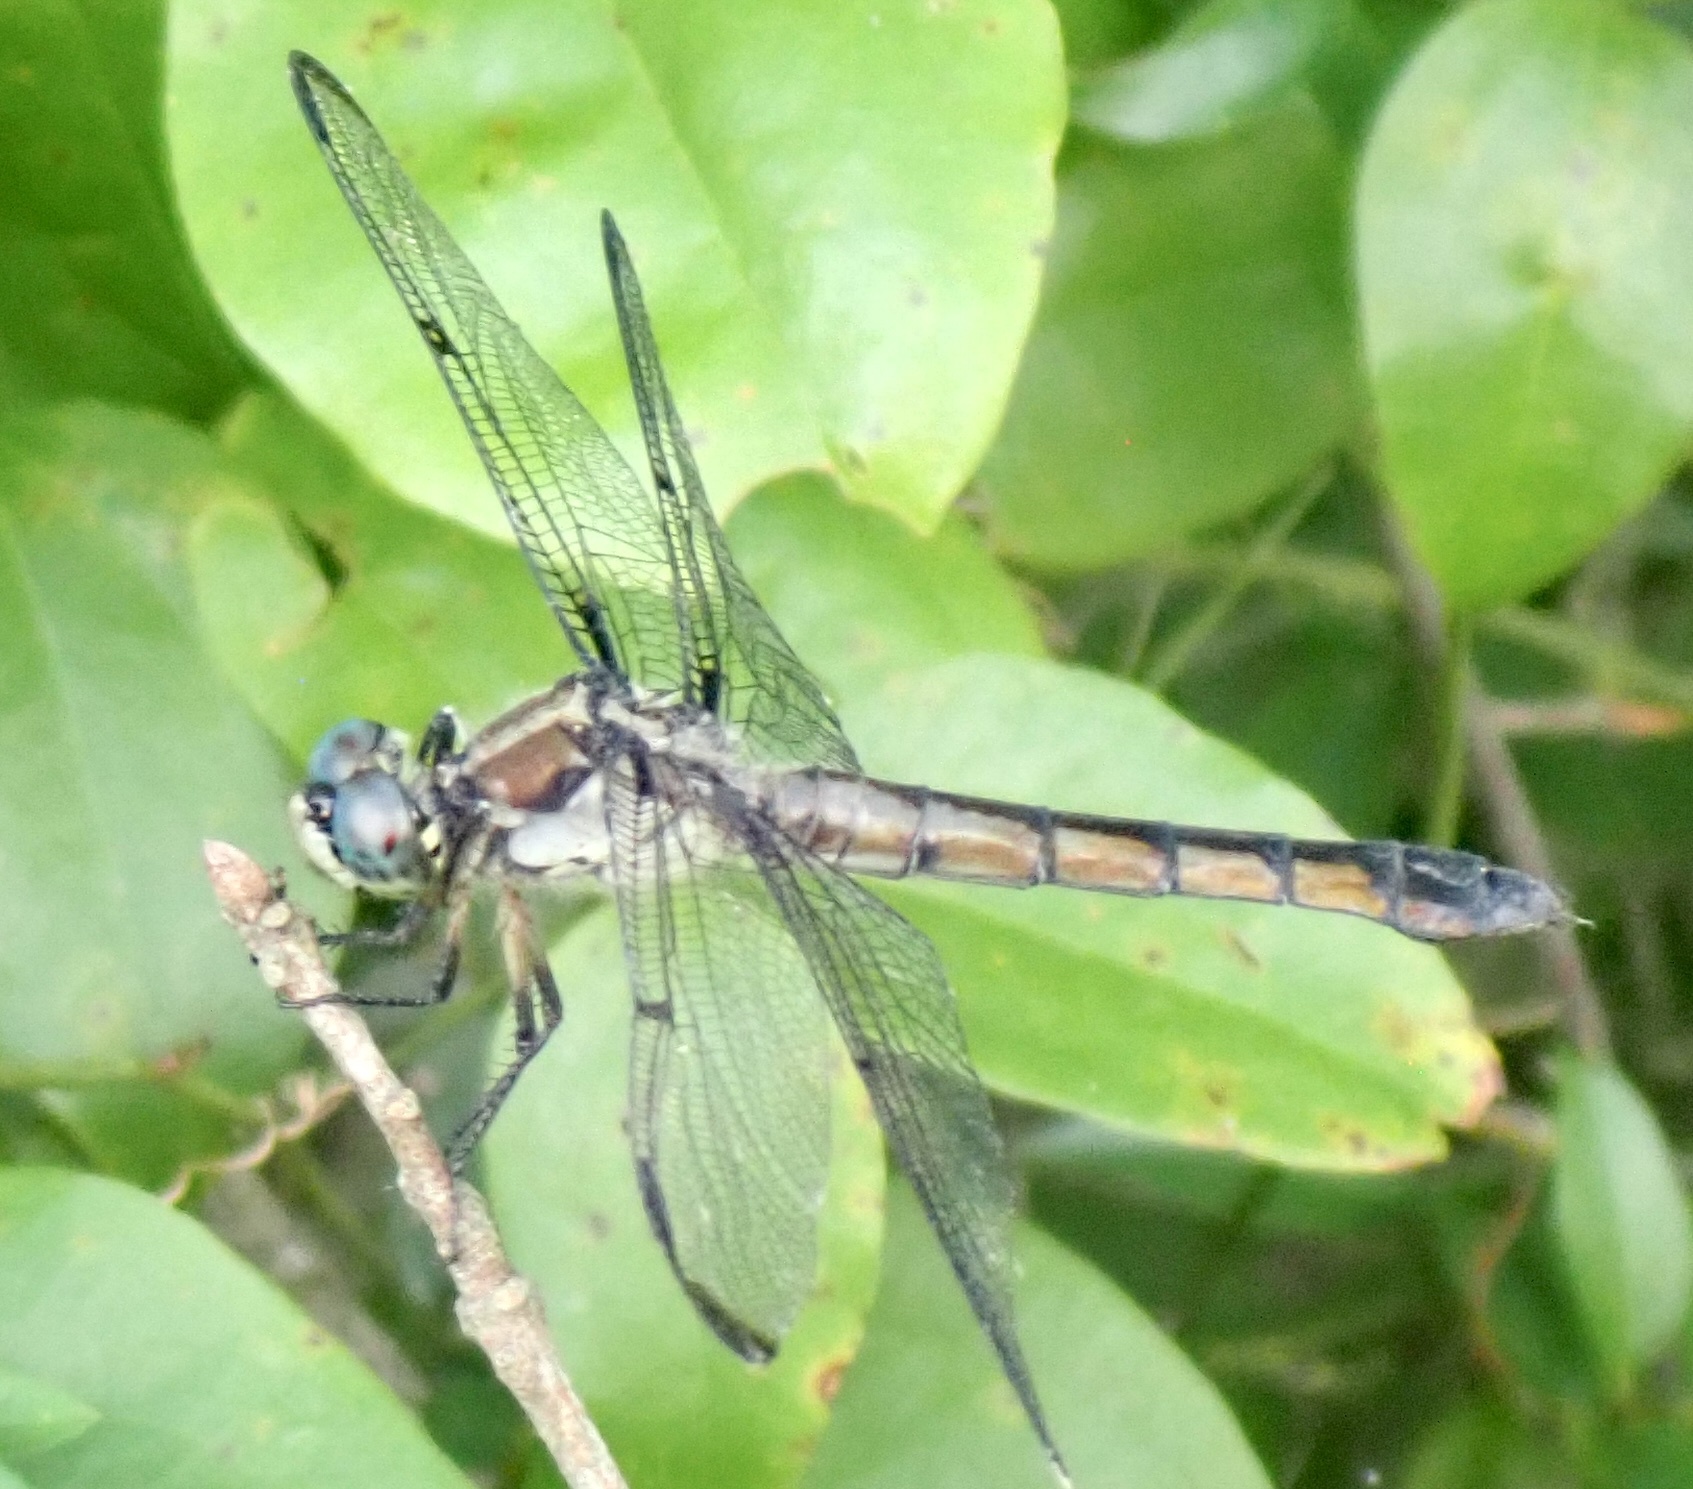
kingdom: Animalia
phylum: Arthropoda
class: Insecta
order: Odonata
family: Libellulidae
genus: Libellula
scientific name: Libellula vibrans
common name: Great blue skimmer
